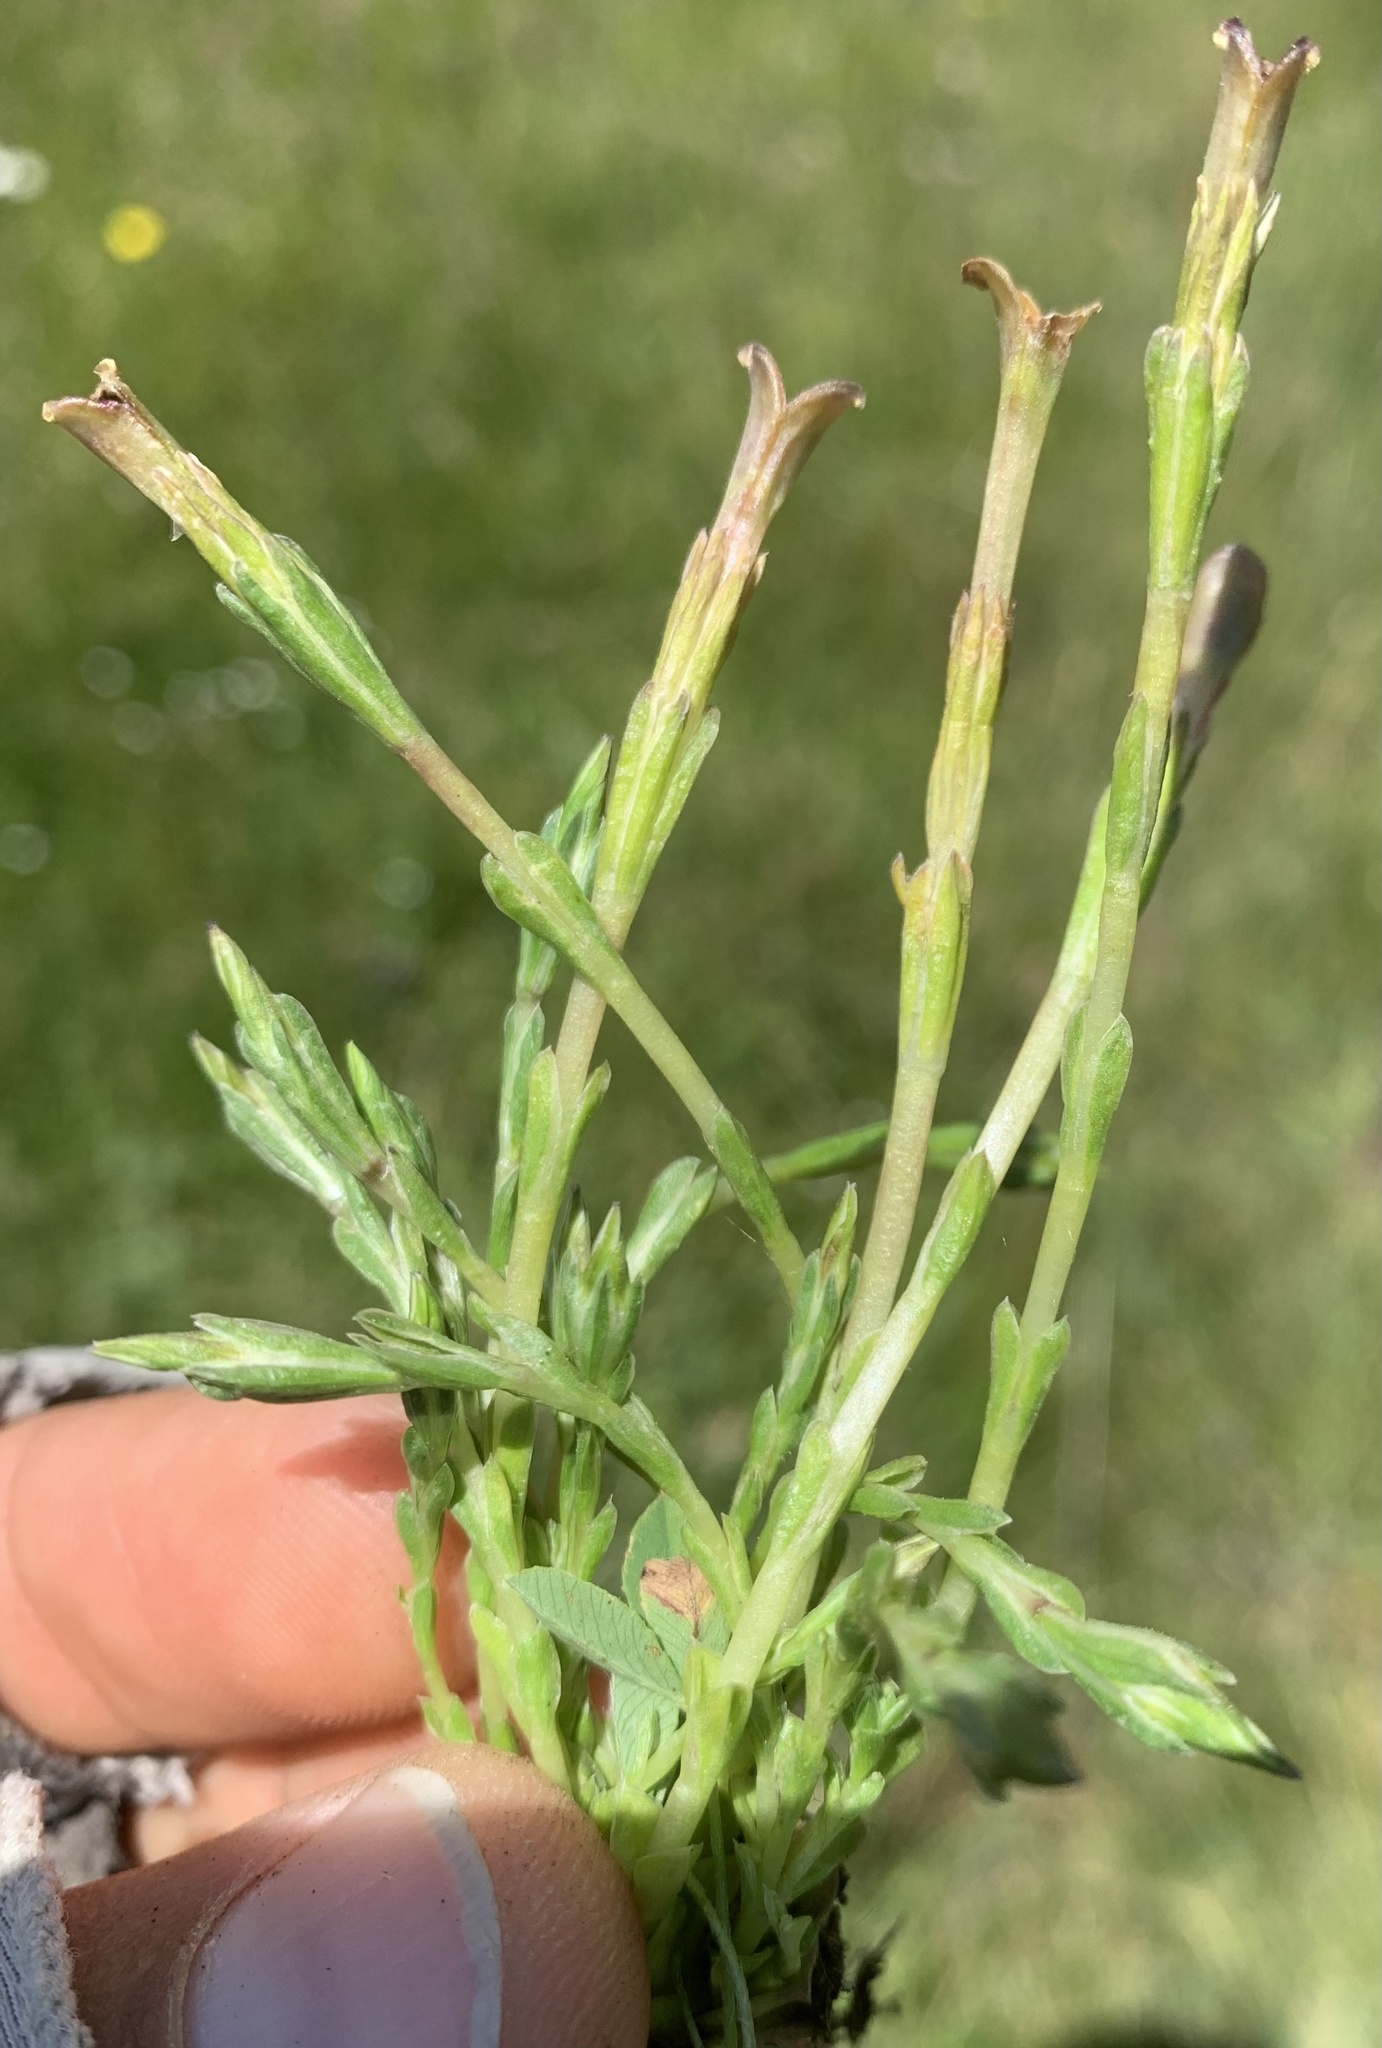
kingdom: Plantae
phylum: Tracheophyta
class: Magnoliopsida
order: Gentianales
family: Gentianaceae
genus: Gentiana
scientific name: Gentiana fremontii
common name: Fremont's gentian
